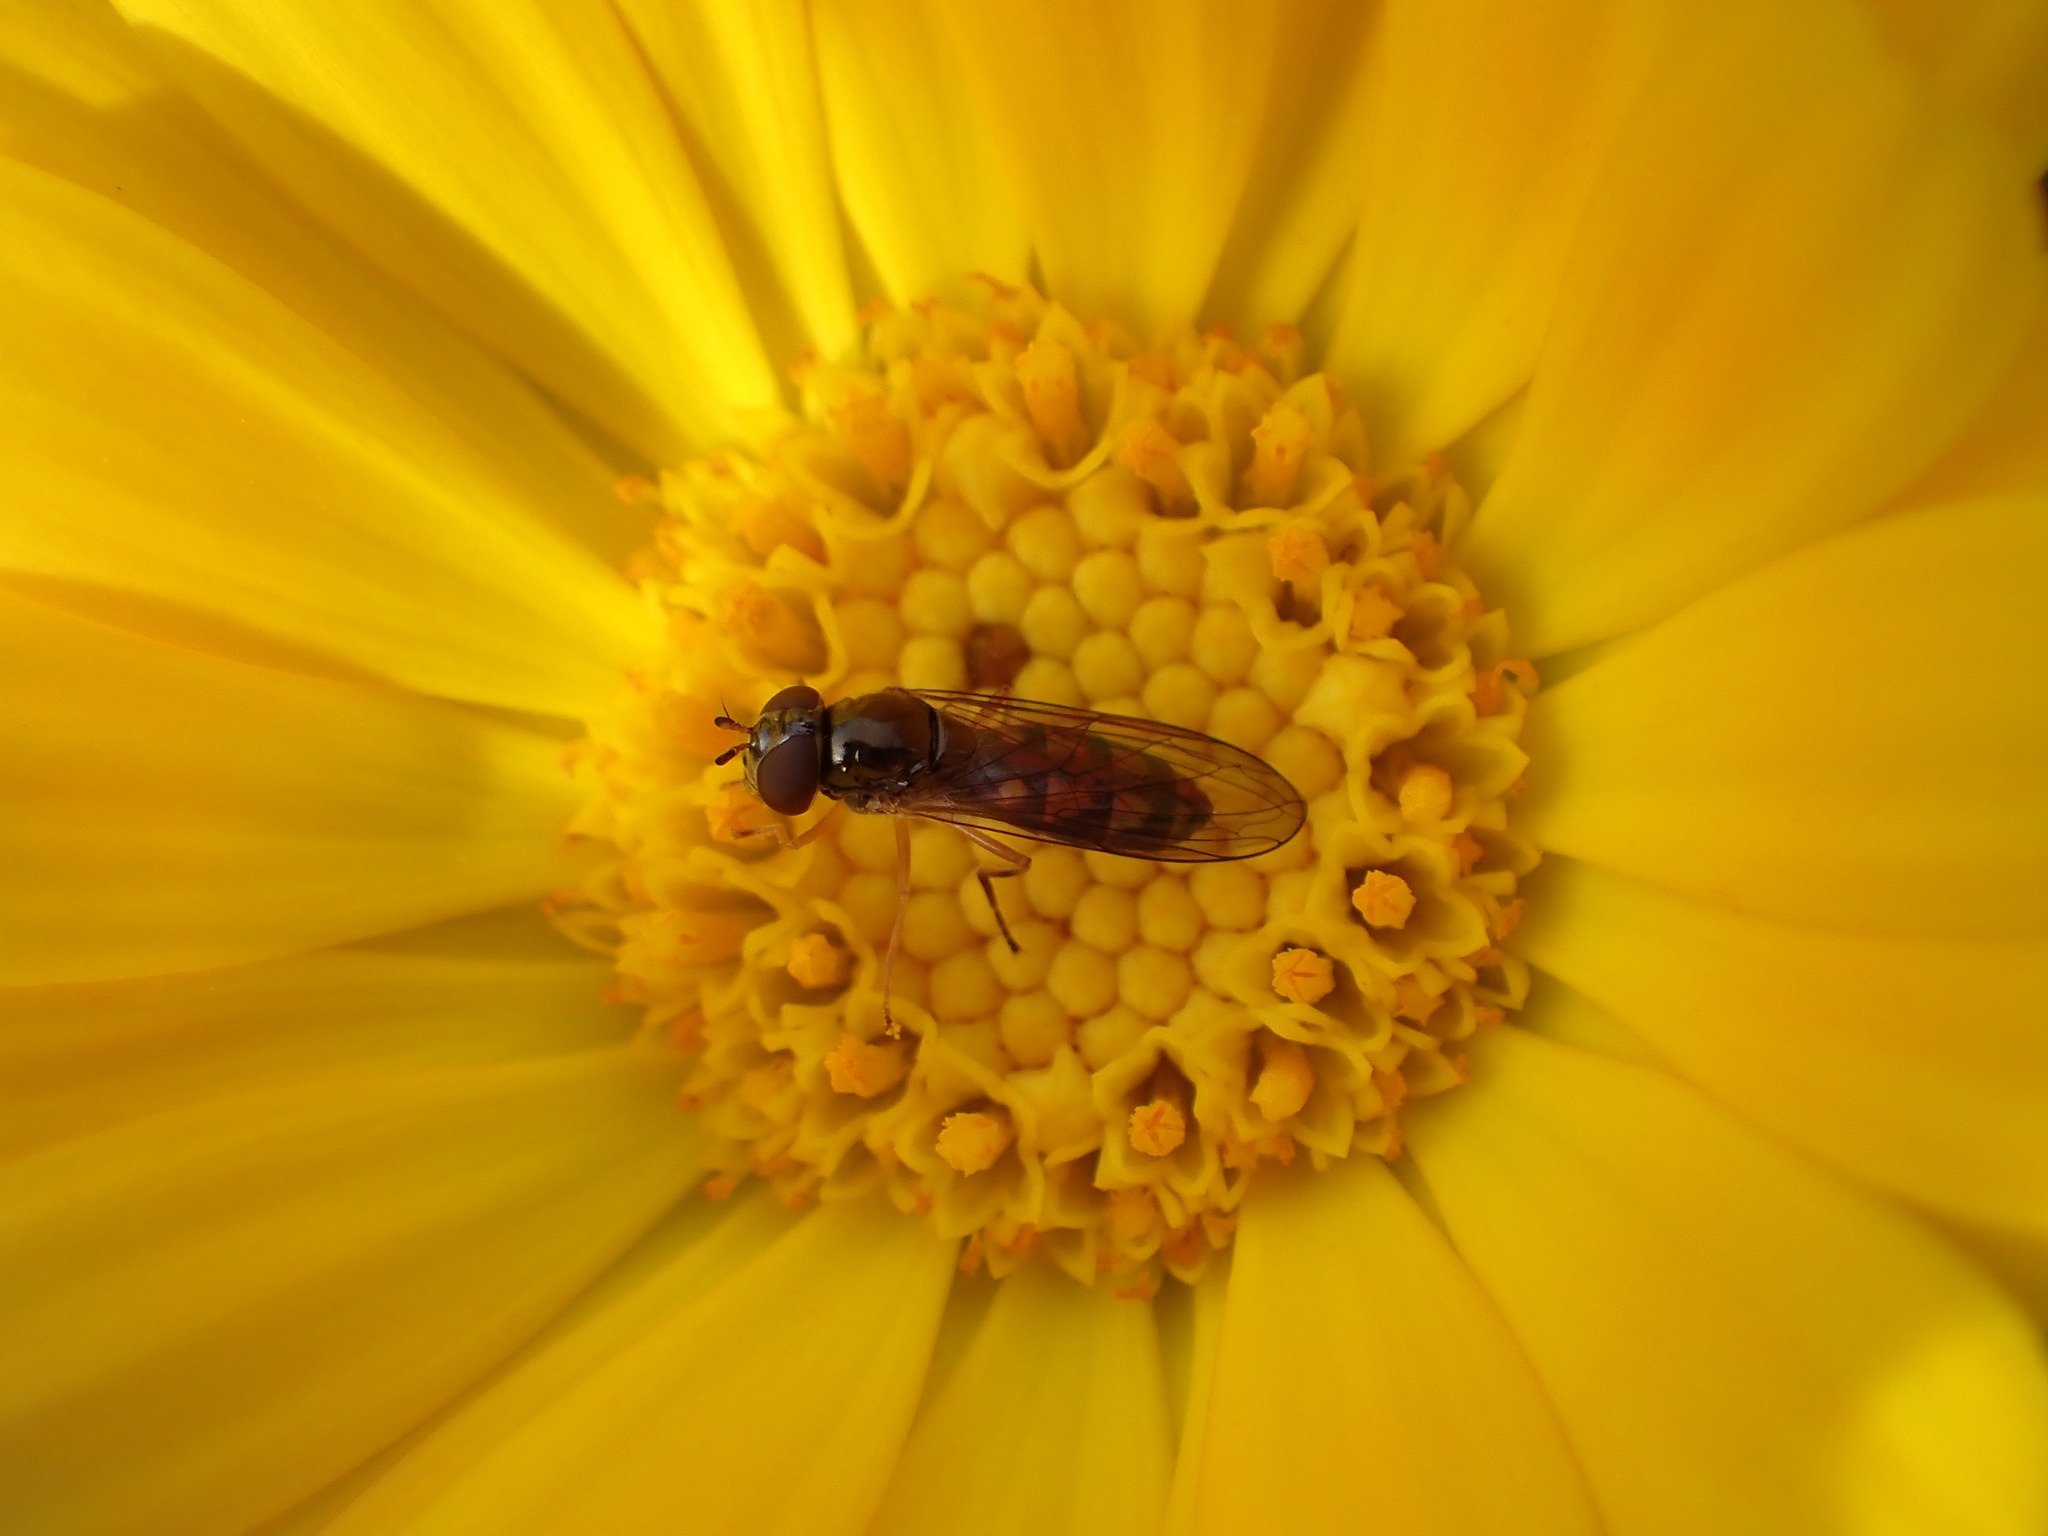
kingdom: Animalia
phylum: Arthropoda
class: Insecta
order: Diptera
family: Syrphidae
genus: Melanostoma
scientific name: Melanostoma fasciatum
